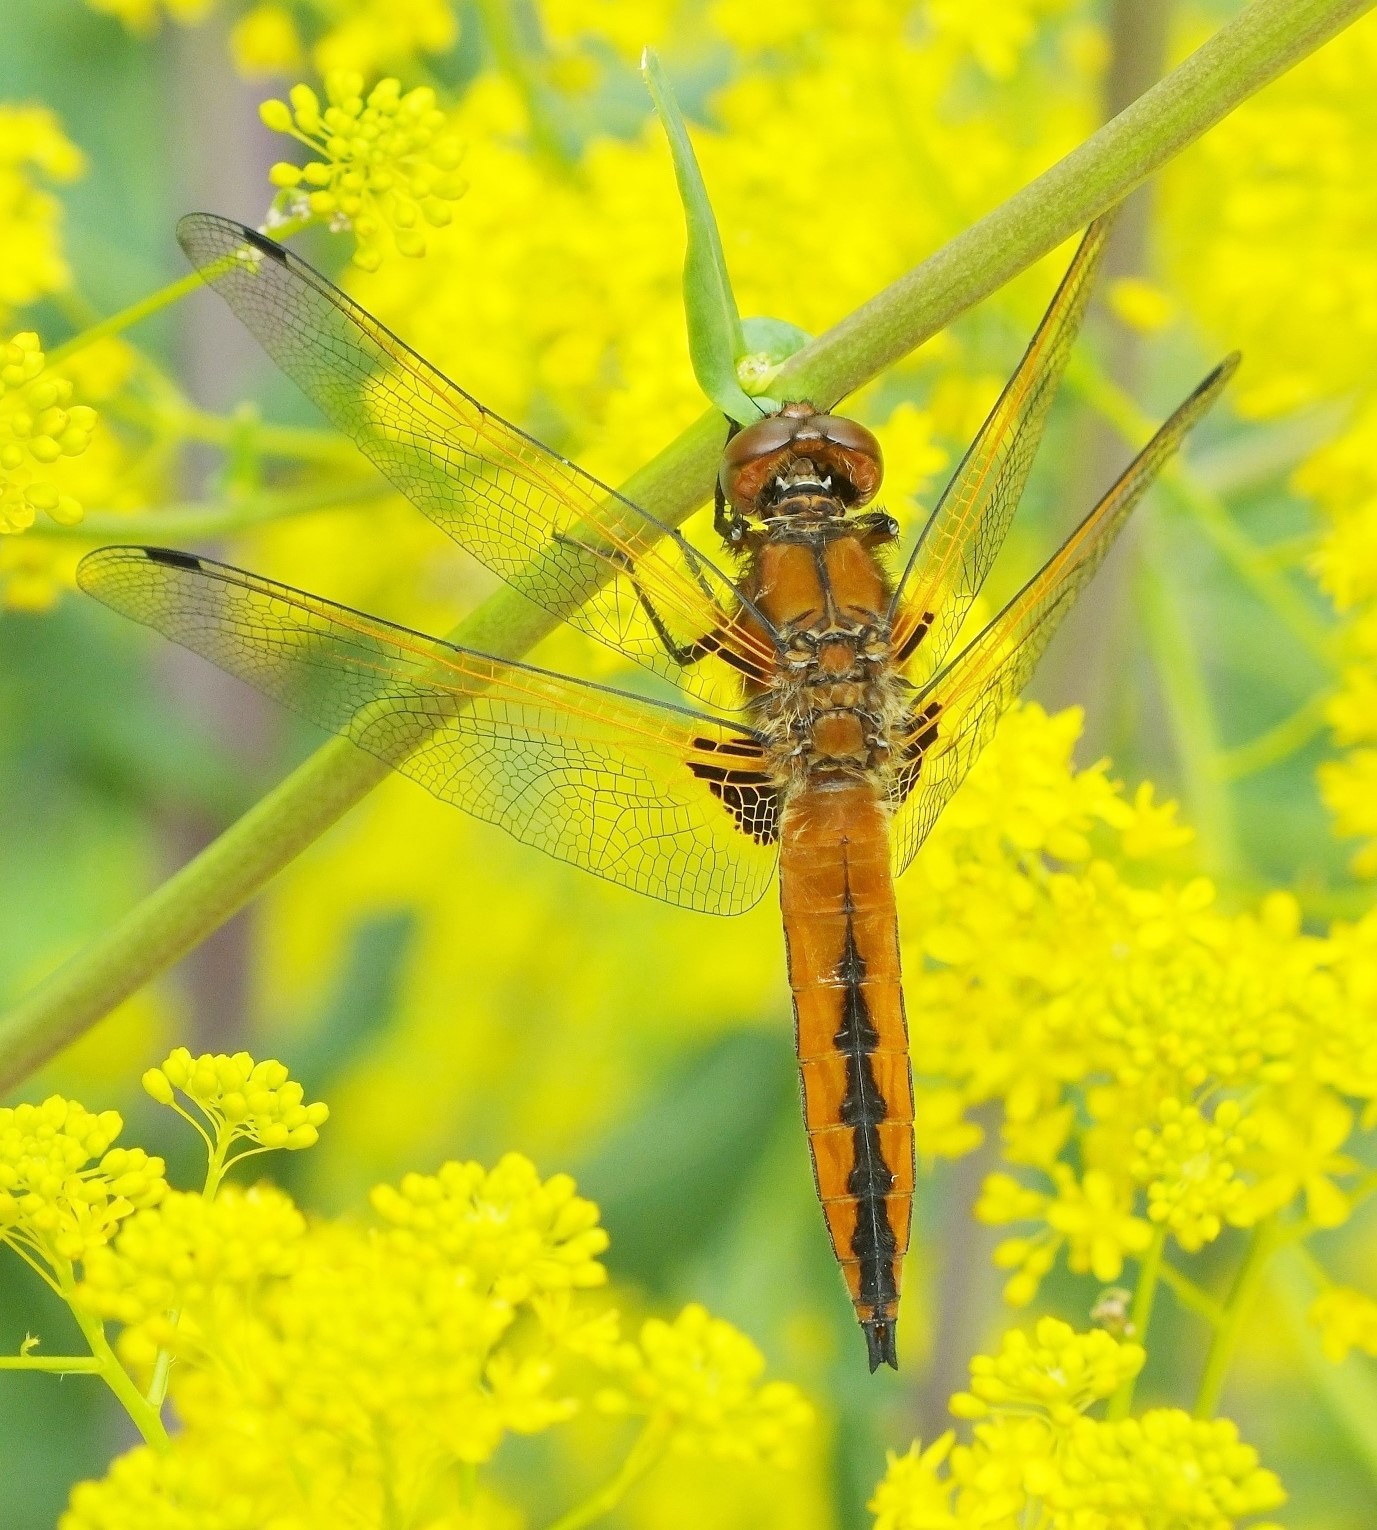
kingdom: Animalia
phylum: Arthropoda
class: Insecta
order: Odonata
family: Libellulidae
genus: Libellula
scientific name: Libellula fulva
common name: Blue chaser
